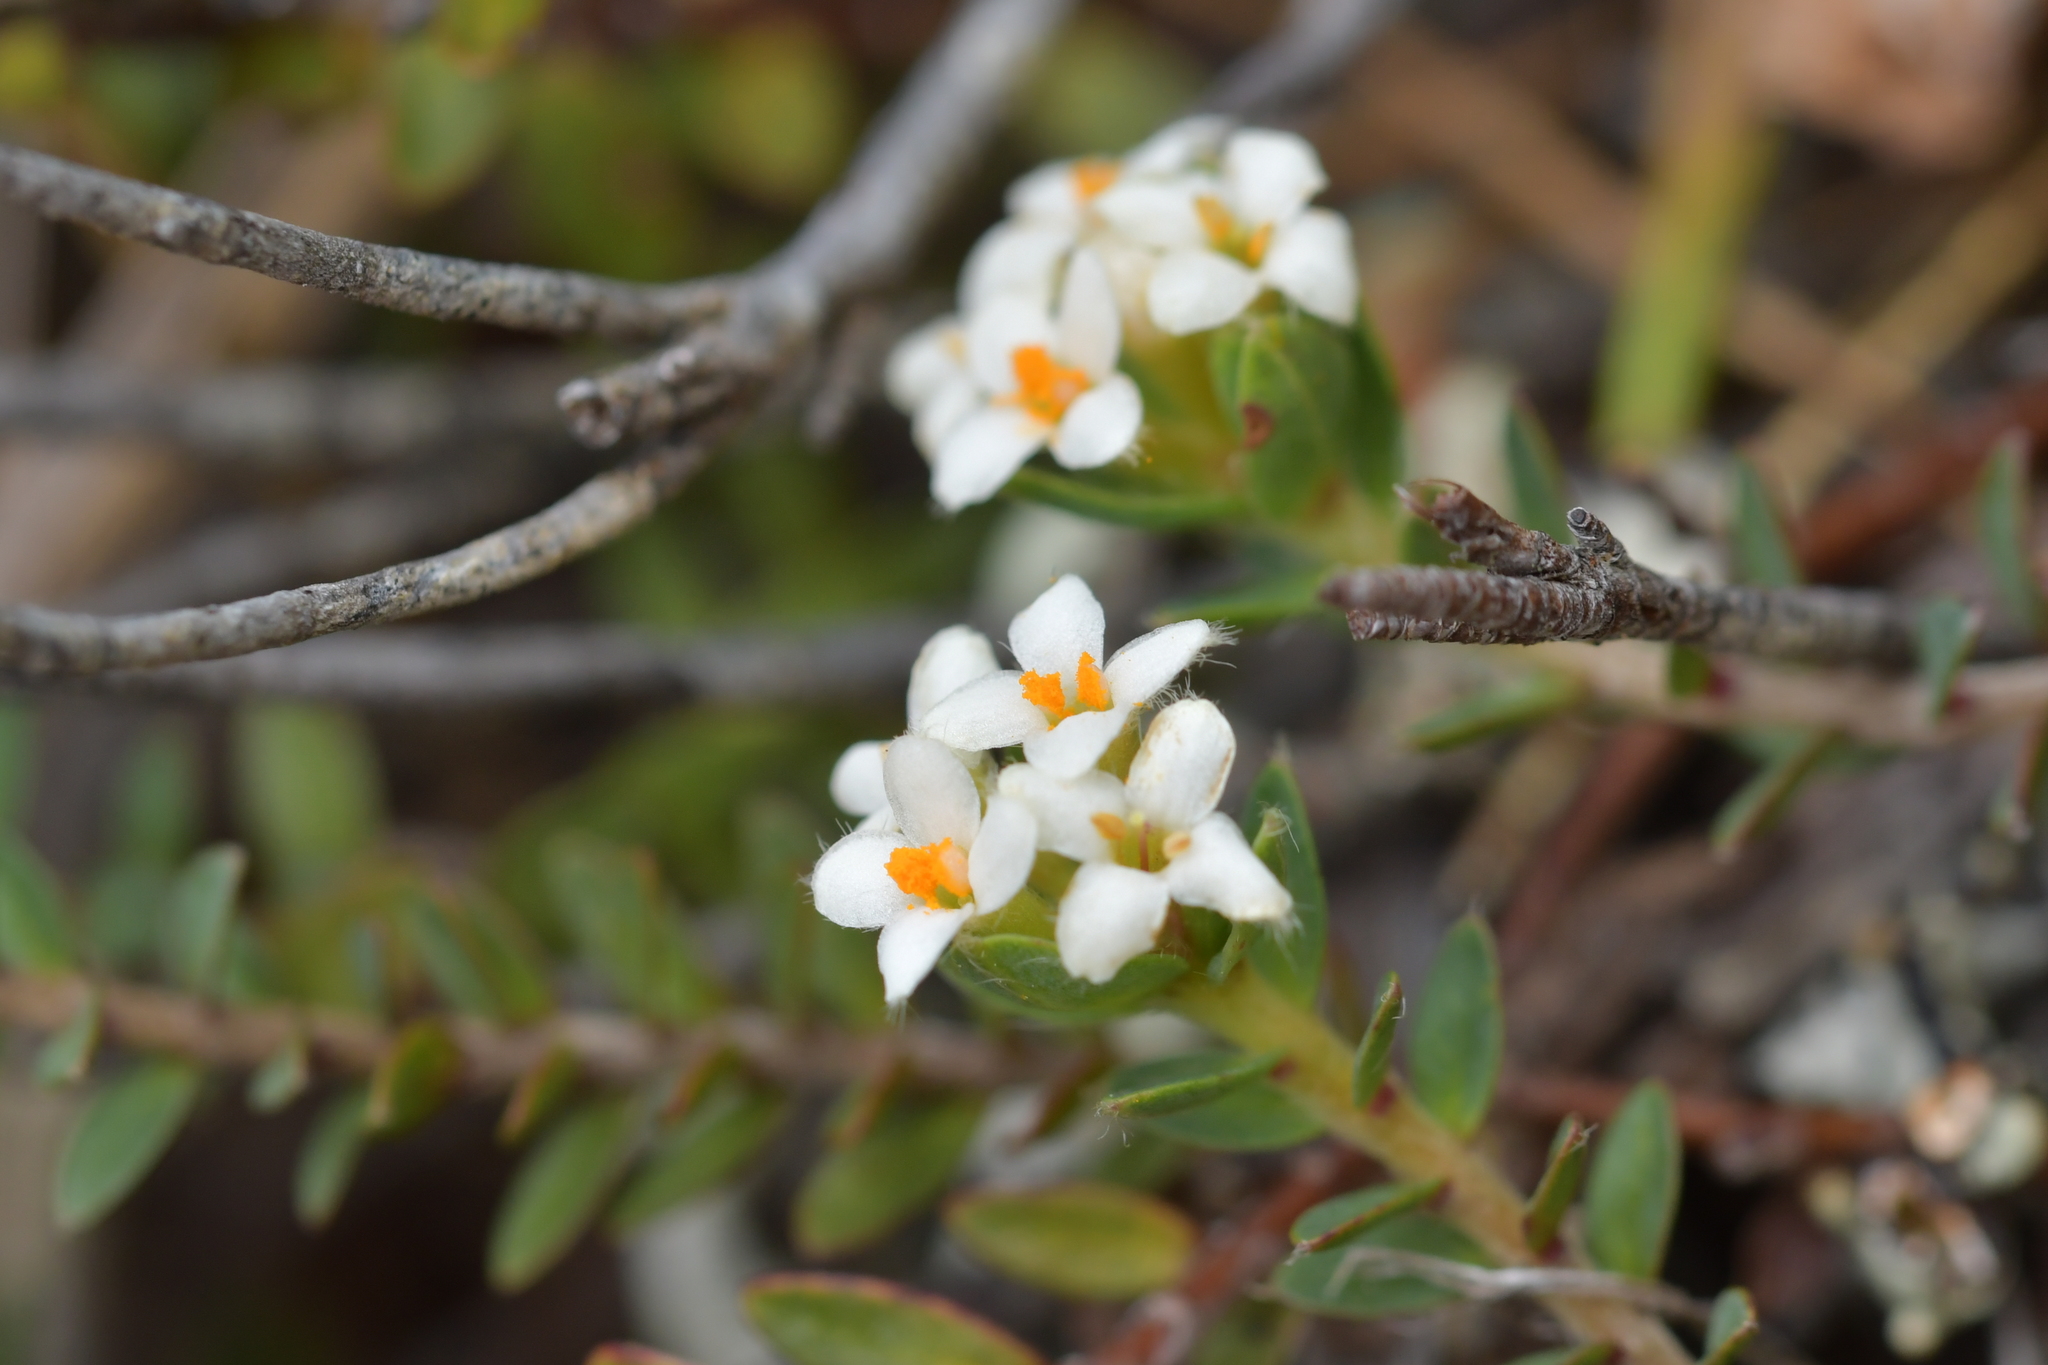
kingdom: Plantae
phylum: Tracheophyta
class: Magnoliopsida
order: Malvales
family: Thymelaeaceae
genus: Pimelea
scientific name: Pimelea oreophila
